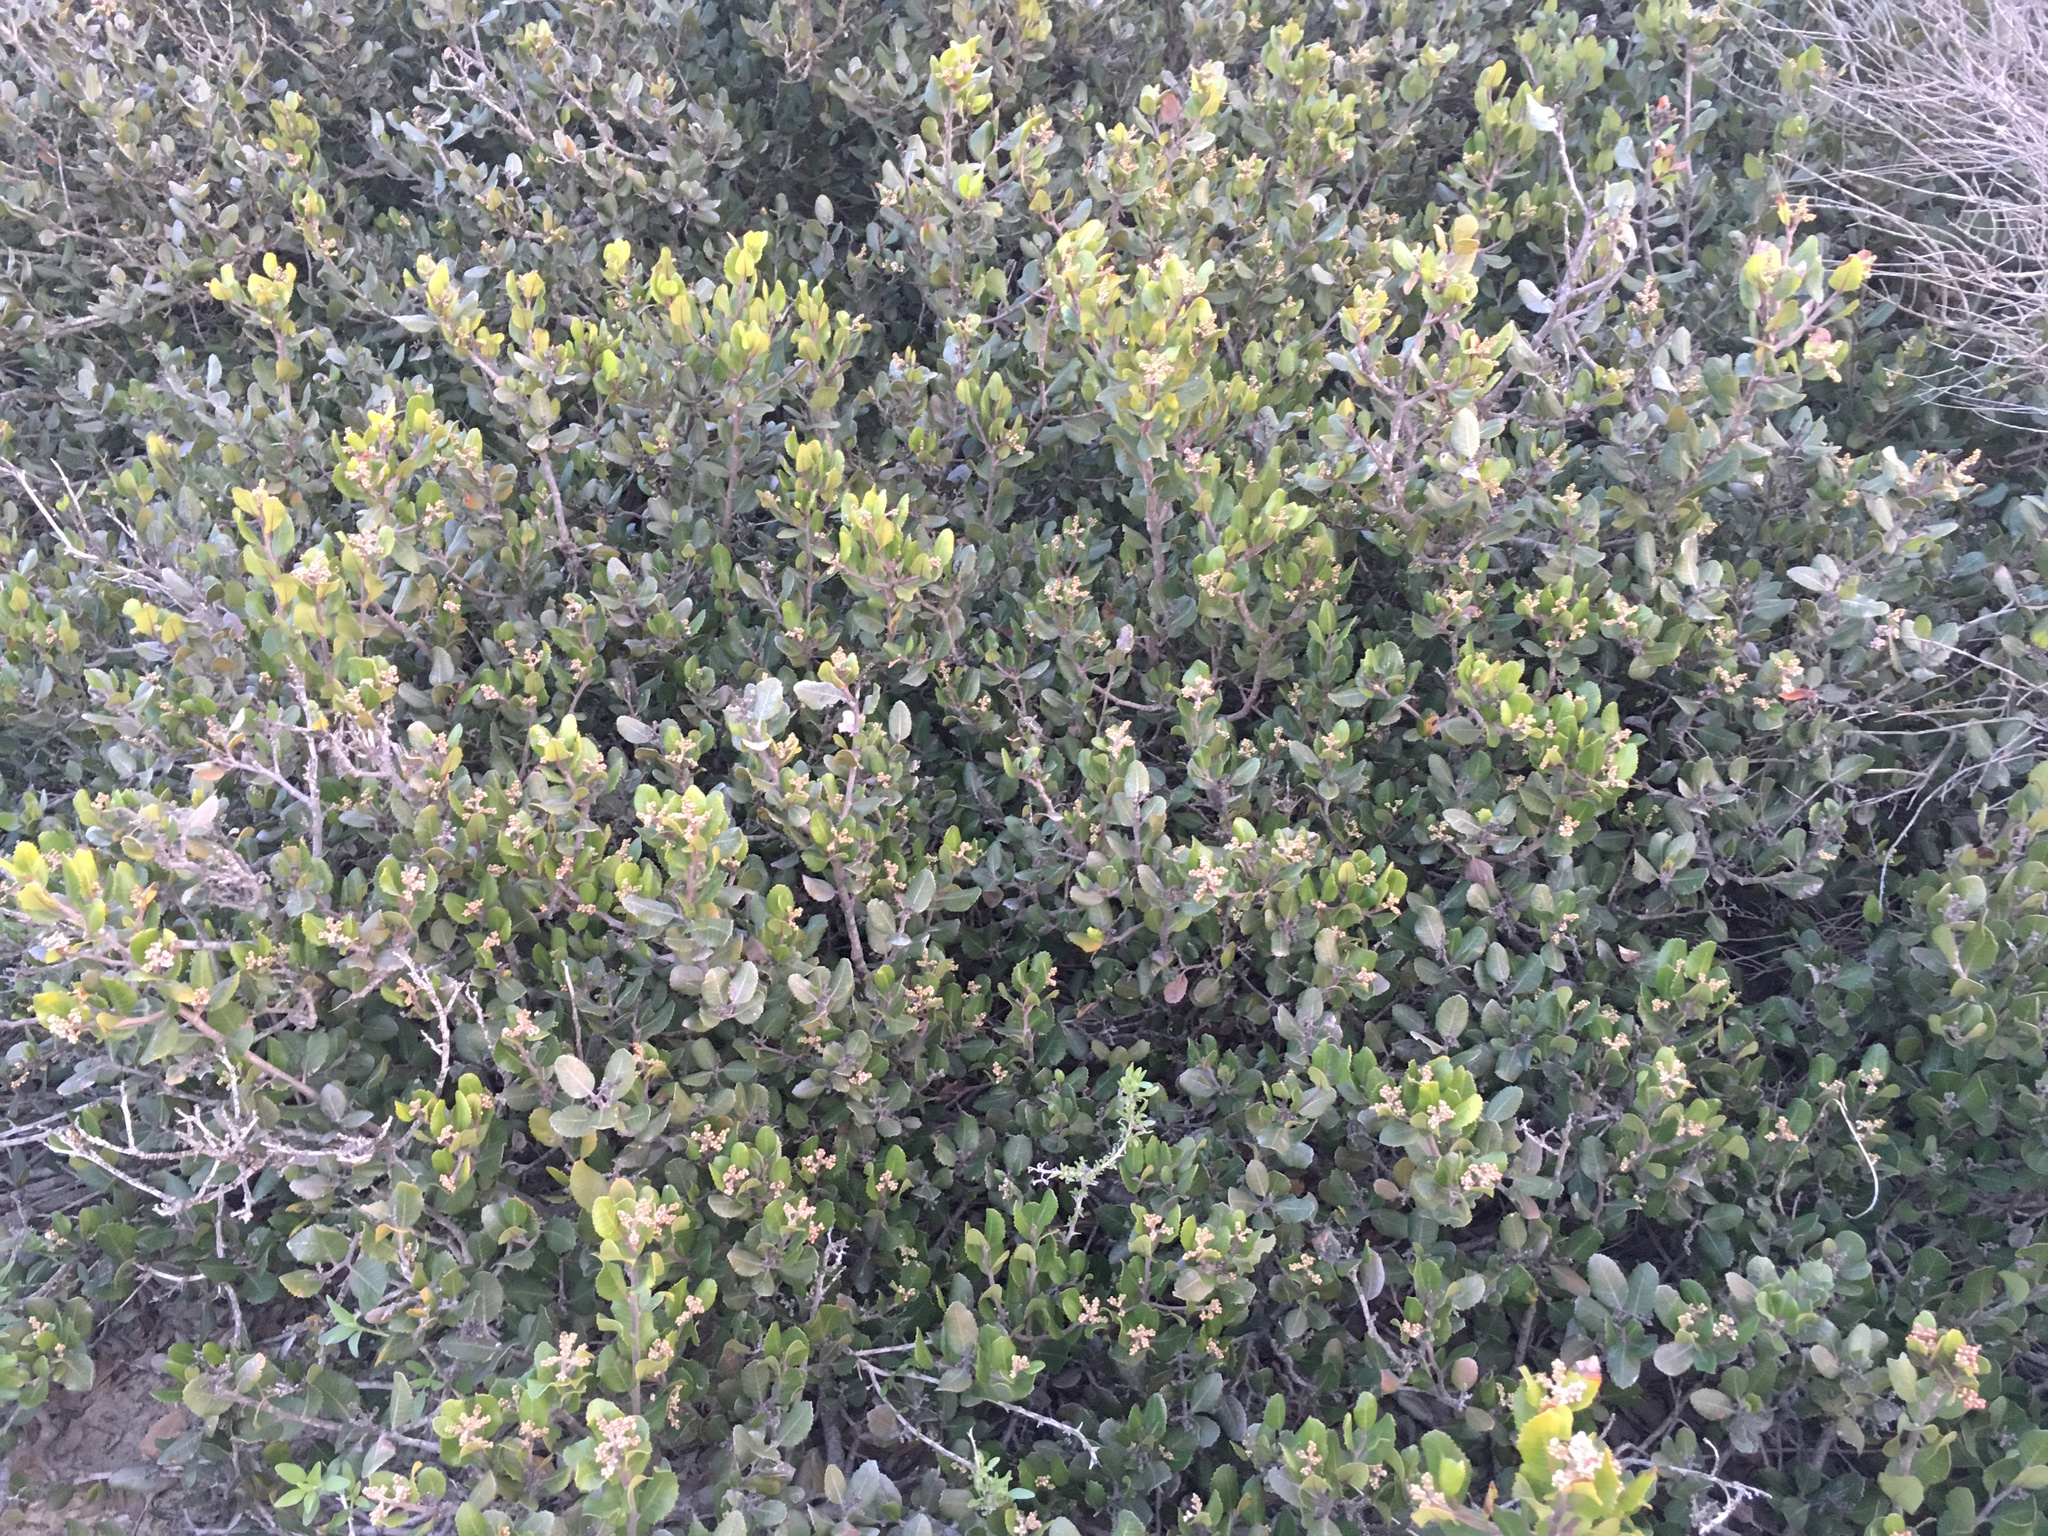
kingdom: Plantae
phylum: Tracheophyta
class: Magnoliopsida
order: Sapindales
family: Anacardiaceae
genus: Rhus
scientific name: Rhus integrifolia
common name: Lemonade sumac
